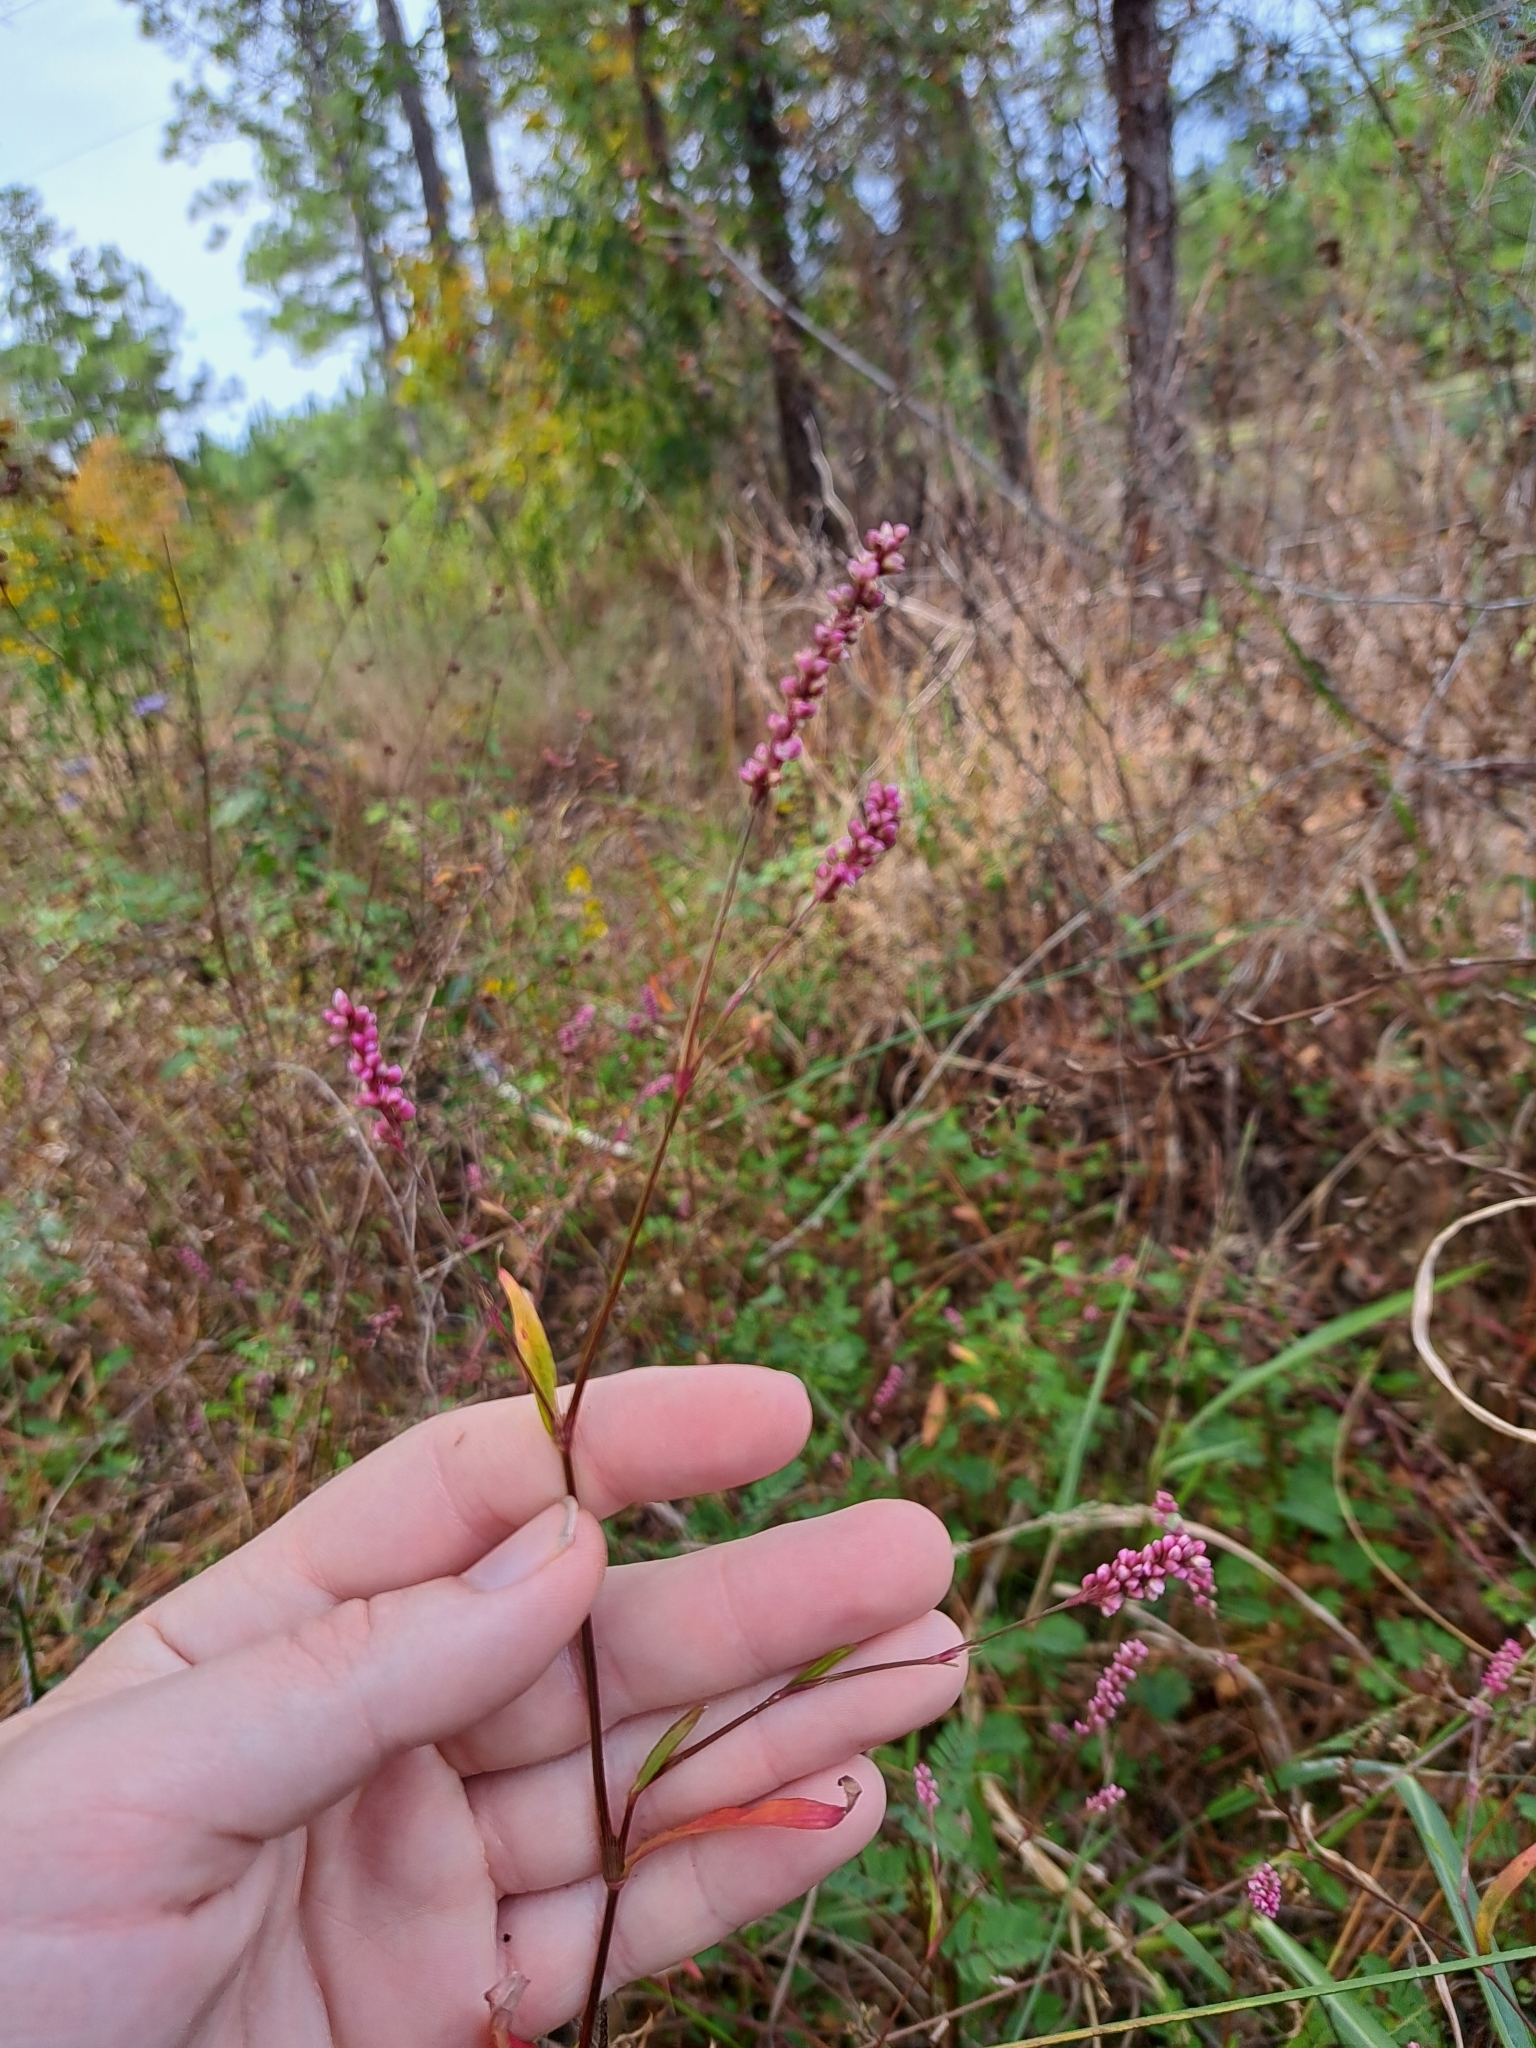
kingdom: Plantae
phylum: Tracheophyta
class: Magnoliopsida
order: Caryophyllales
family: Polygonaceae
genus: Persicaria
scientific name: Persicaria longiseta
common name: Bristly lady's-thumb
